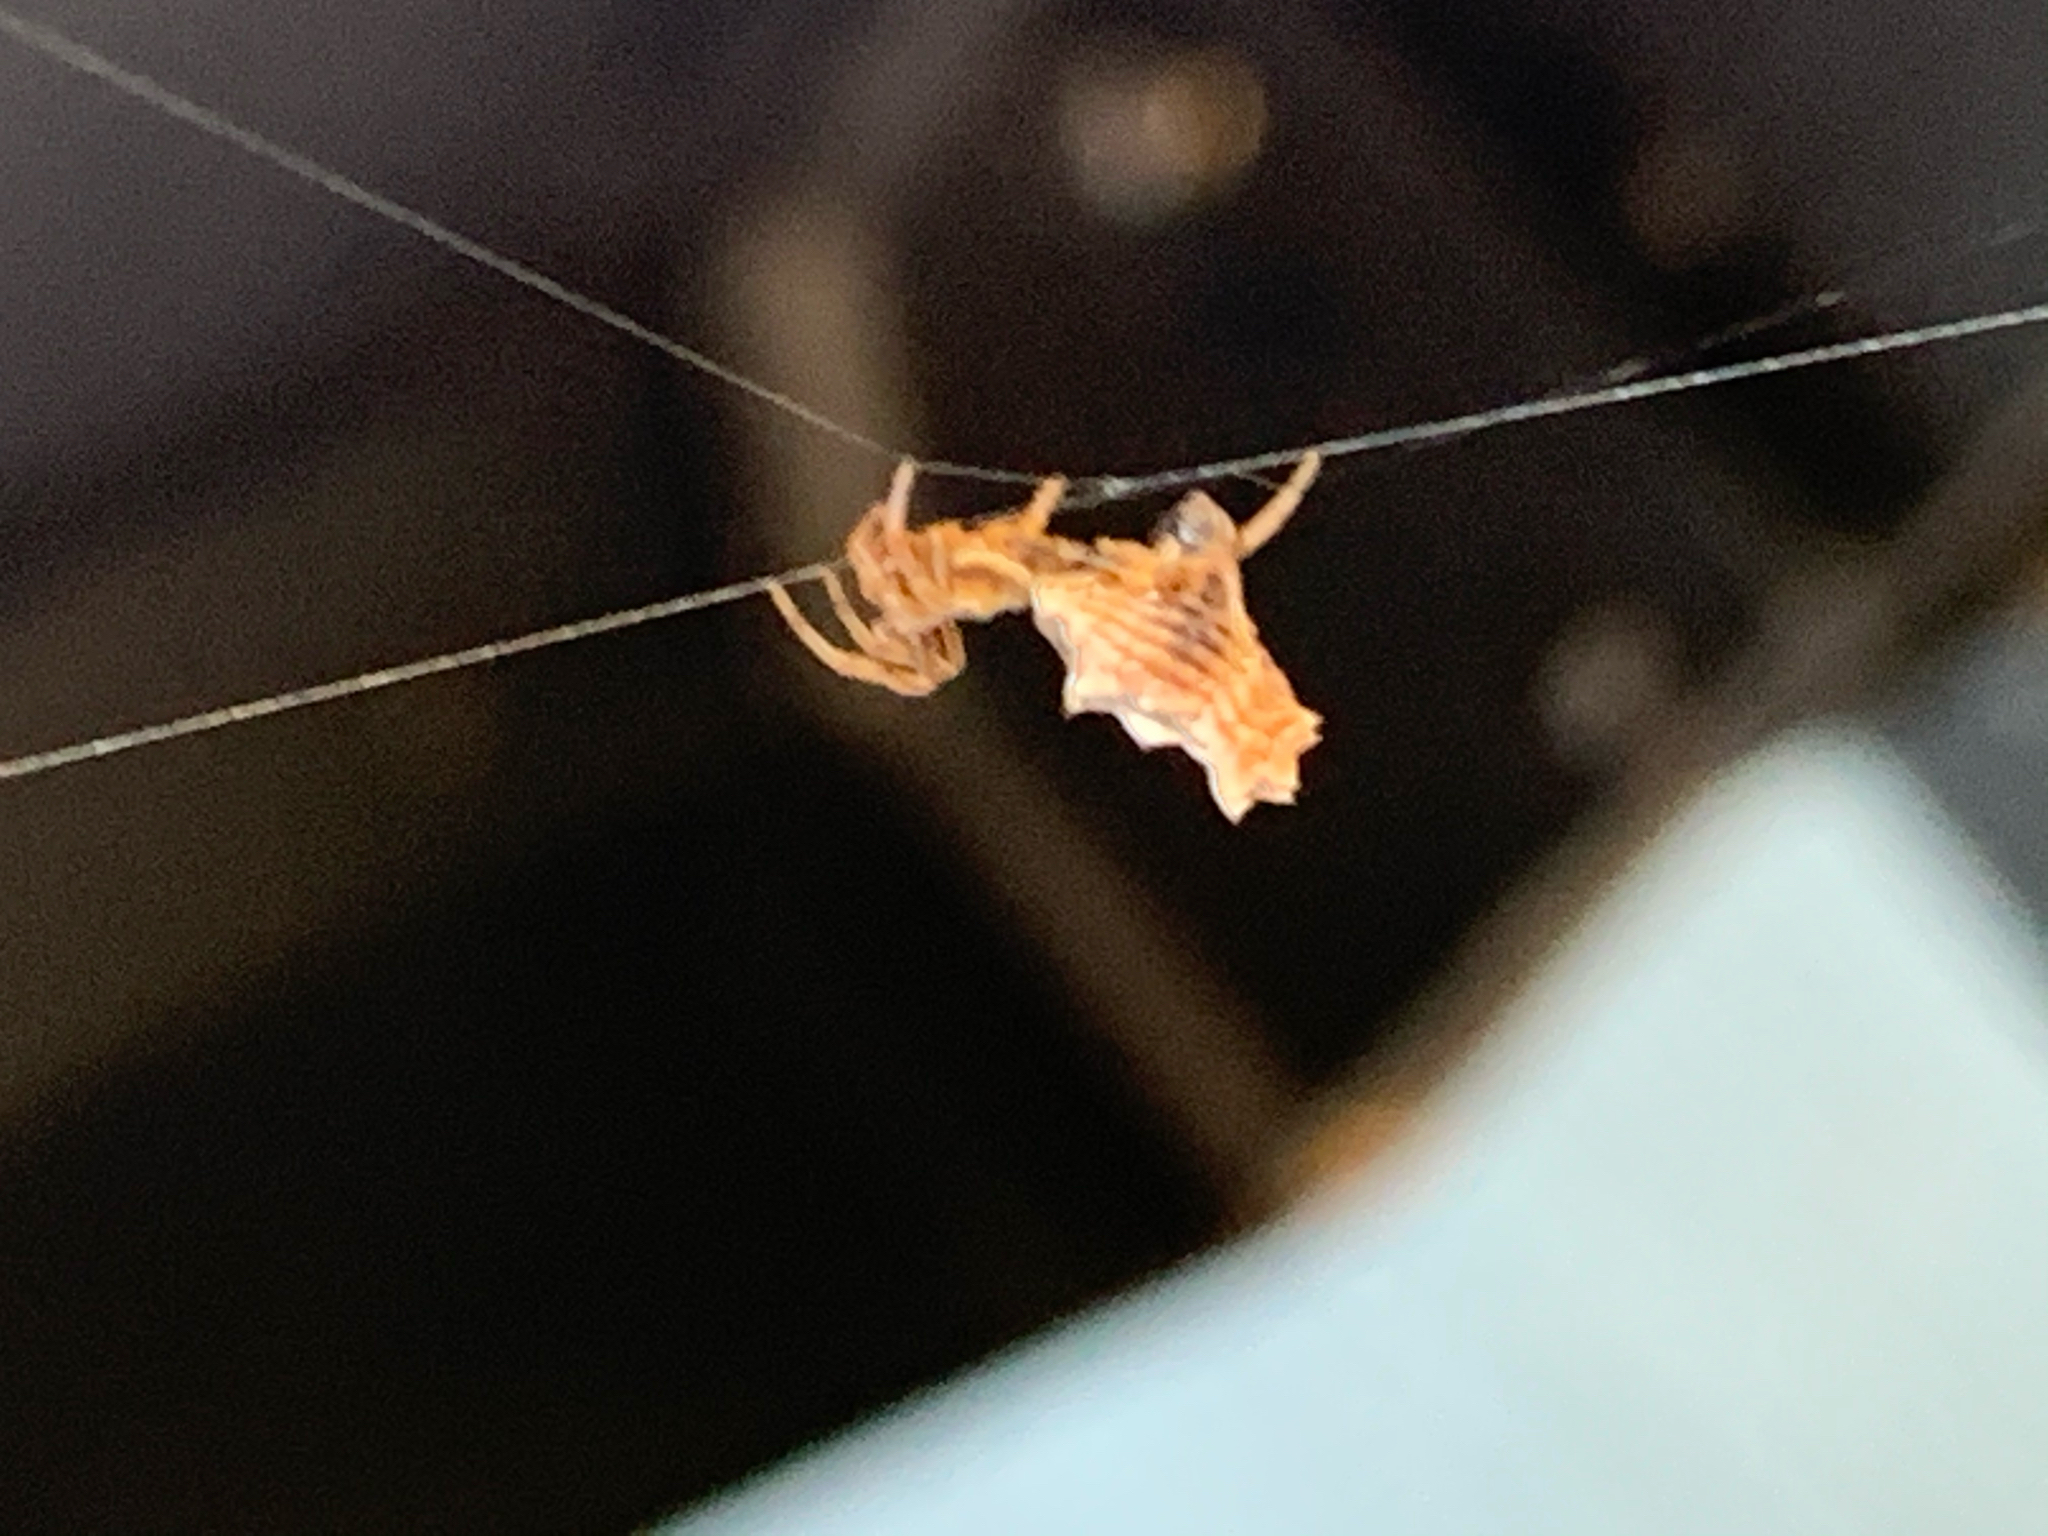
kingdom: Animalia
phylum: Arthropoda
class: Arachnida
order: Araneae
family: Araneidae
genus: Micrathena
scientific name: Micrathena gracilis
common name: Orb weavers
